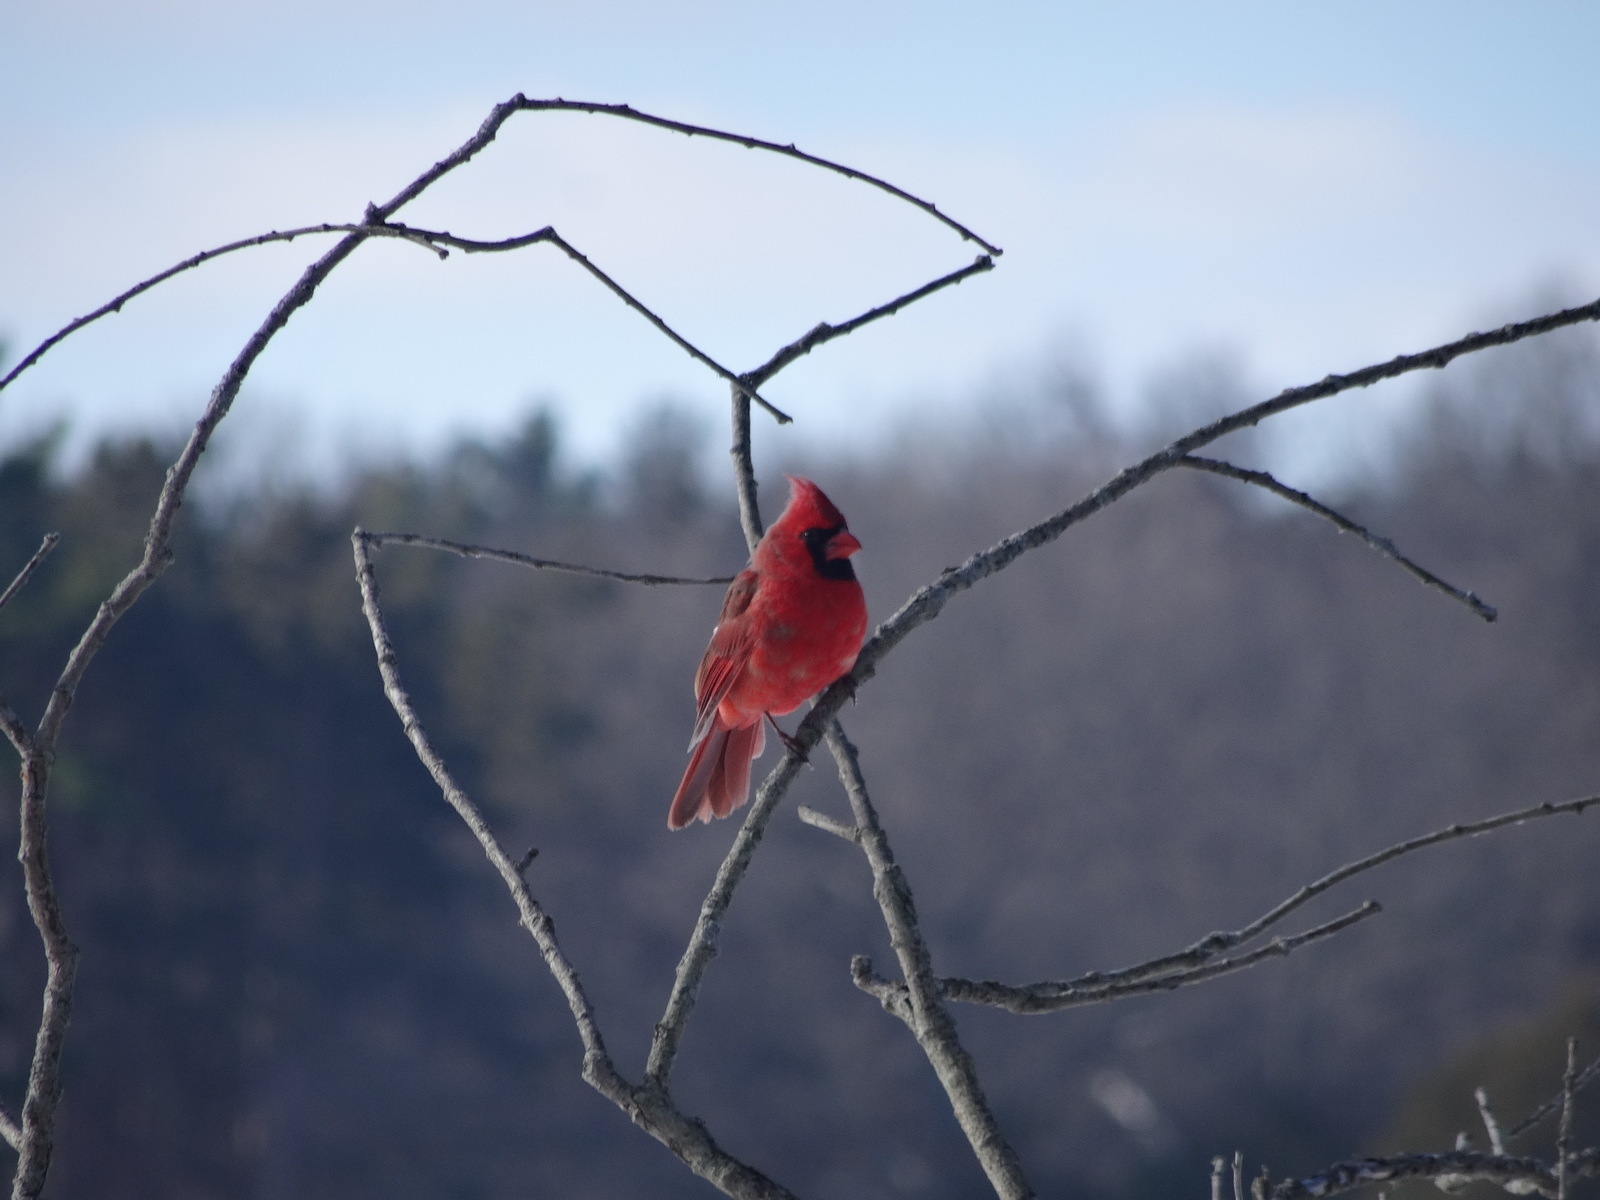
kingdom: Animalia
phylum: Chordata
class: Aves
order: Passeriformes
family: Cardinalidae
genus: Cardinalis
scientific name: Cardinalis cardinalis
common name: Northern cardinal
